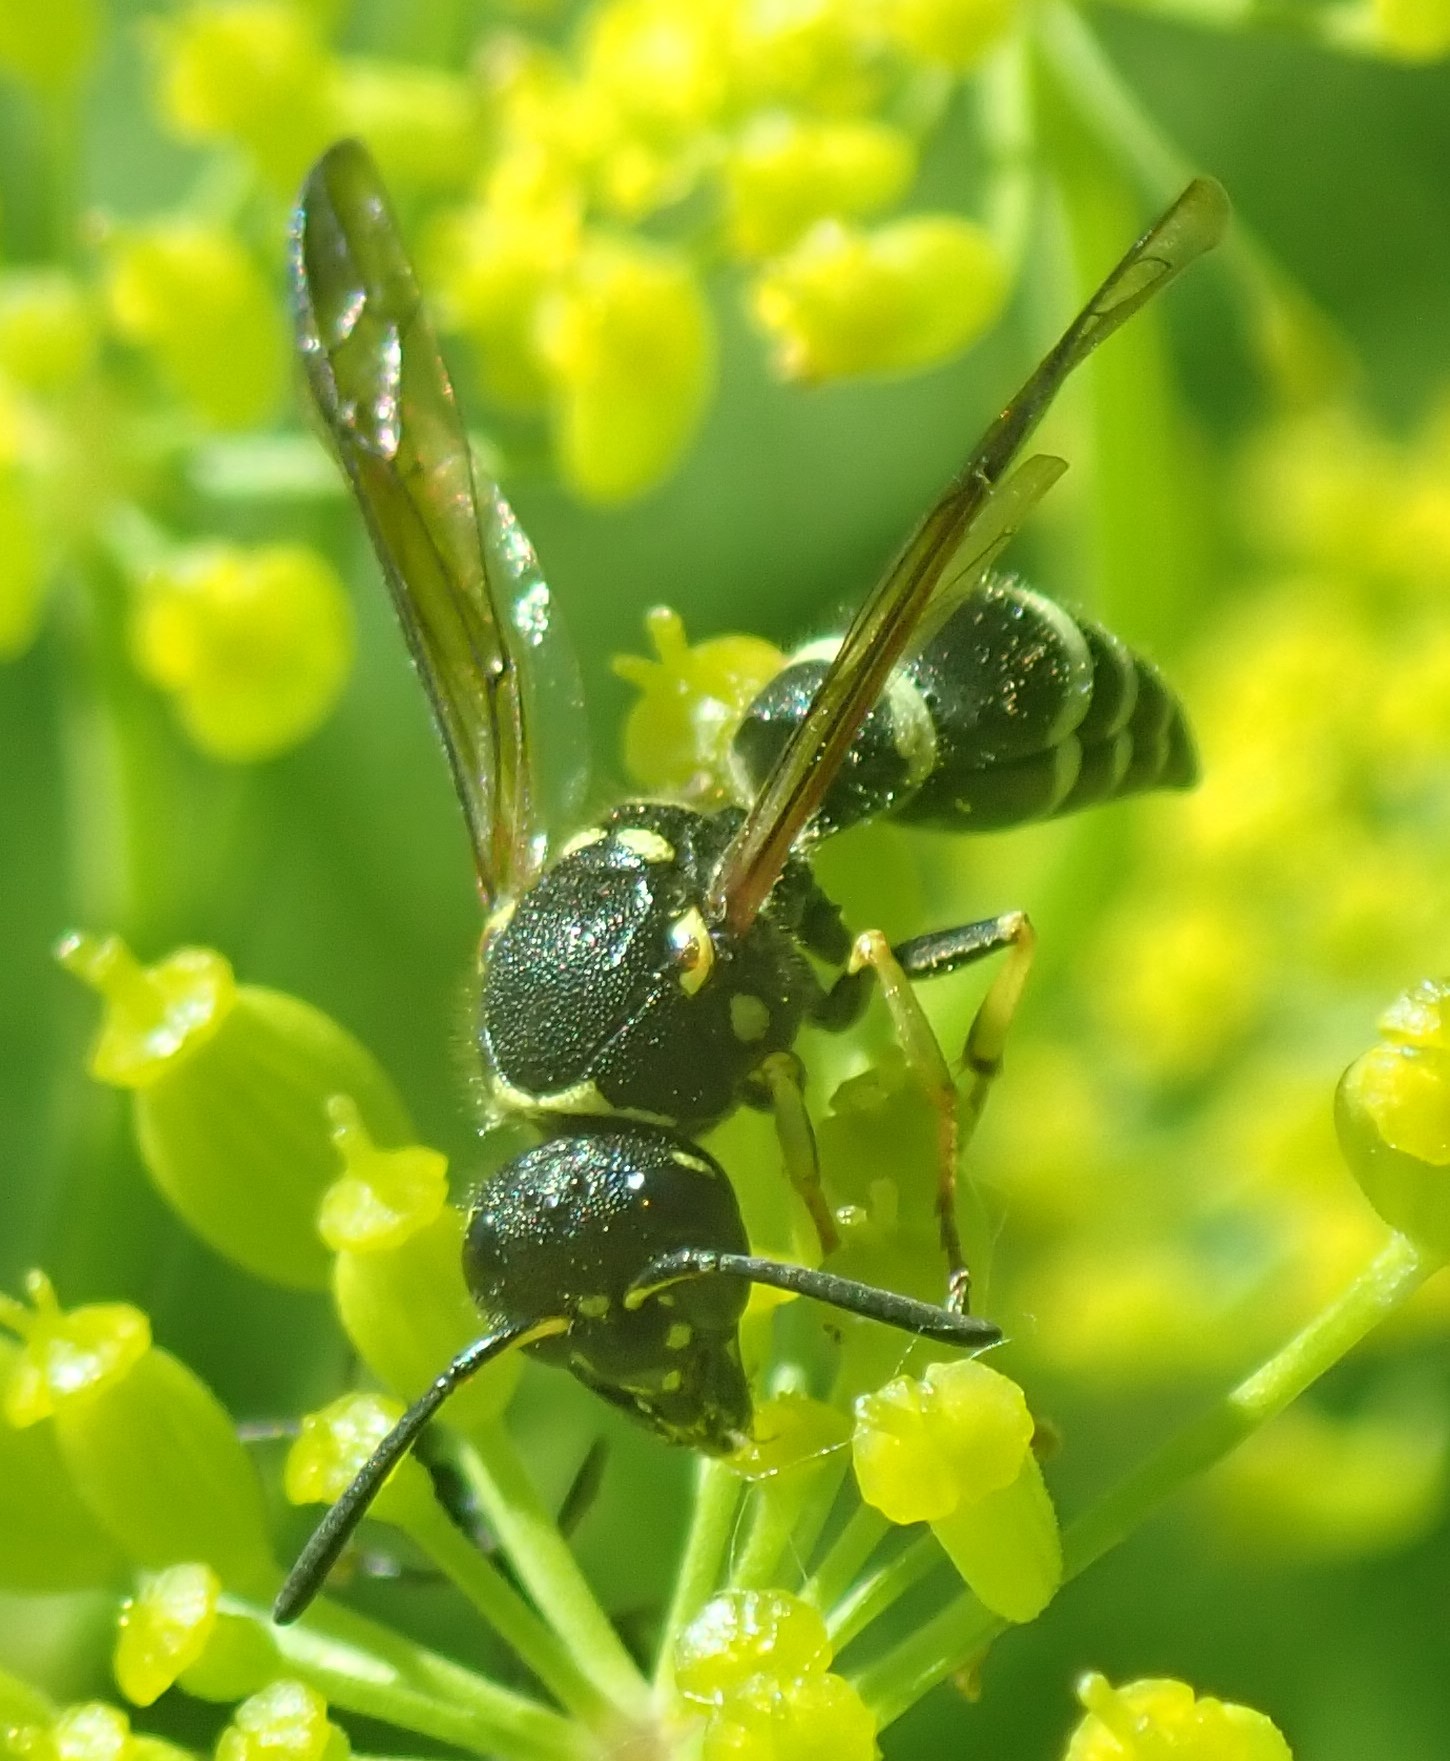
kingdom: Animalia
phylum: Arthropoda
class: Insecta
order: Hymenoptera
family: Vespidae
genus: Ancistrocerus
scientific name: Ancistrocerus
